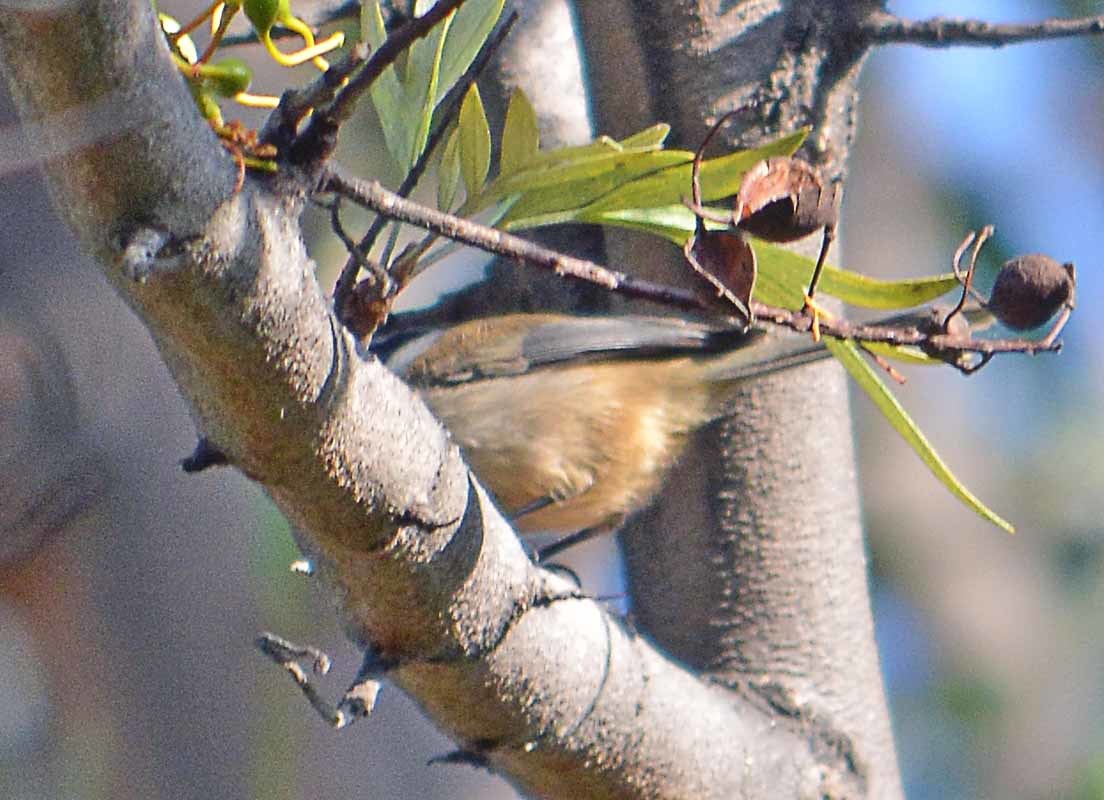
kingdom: Animalia
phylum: Chordata
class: Aves
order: Passeriformes
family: Aegithalidae
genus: Psaltriparus
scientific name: Psaltriparus minimus
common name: American bushtit
